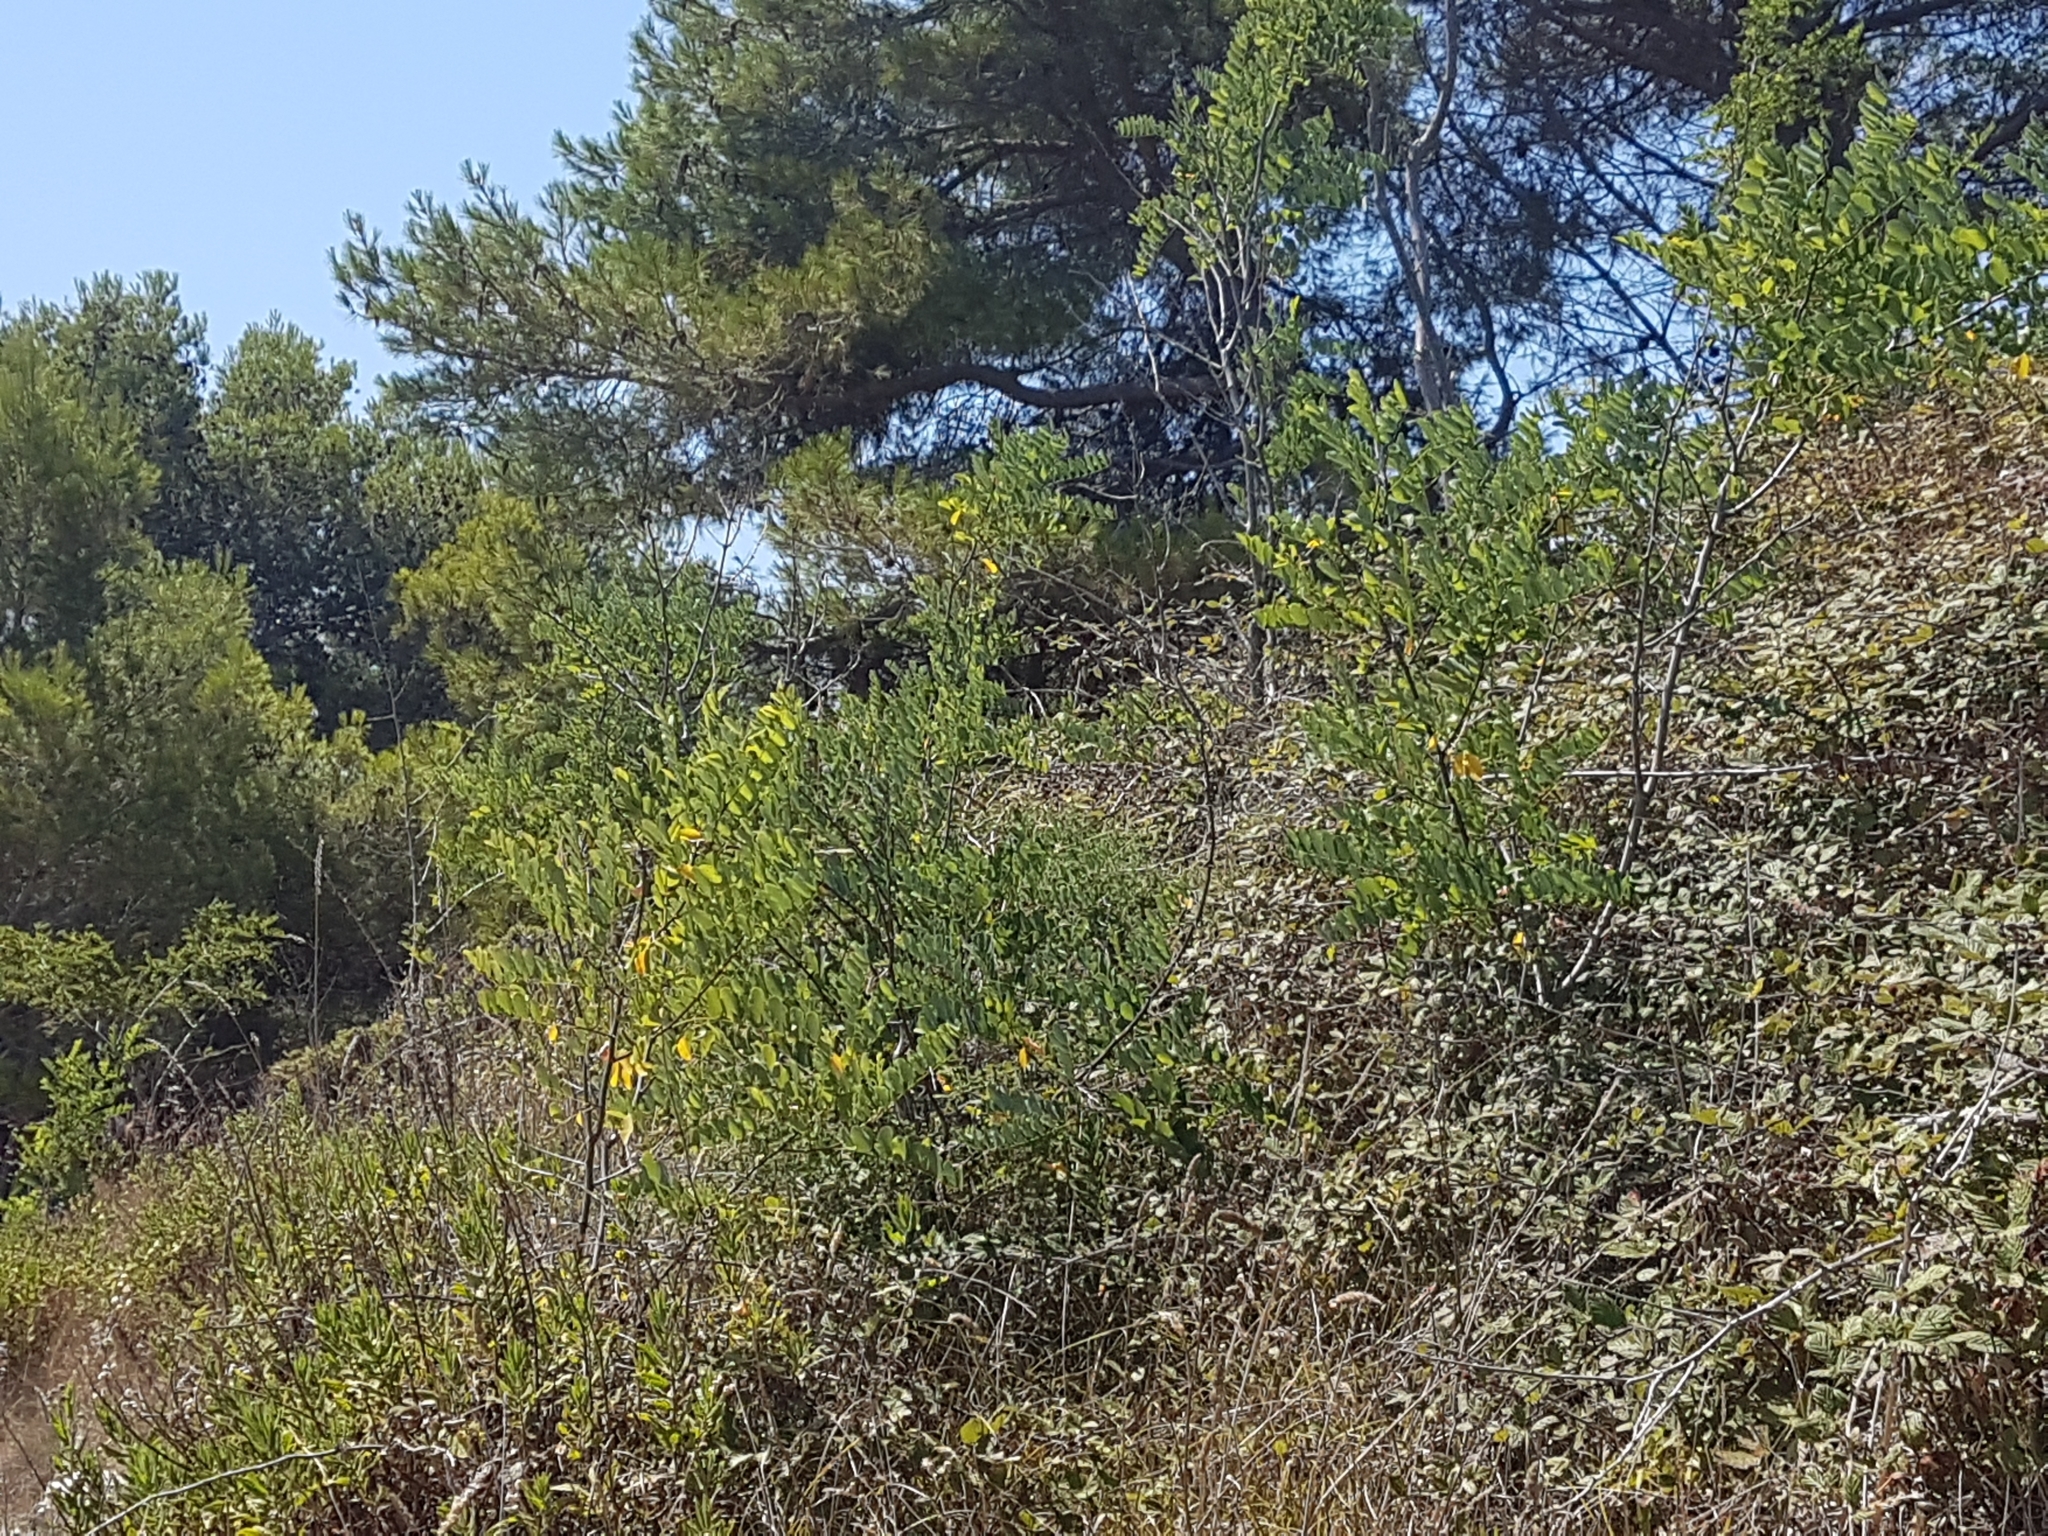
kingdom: Plantae
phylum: Tracheophyta
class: Magnoliopsida
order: Fabales
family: Fabaceae
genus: Robinia
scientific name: Robinia pseudoacacia
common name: Black locust
